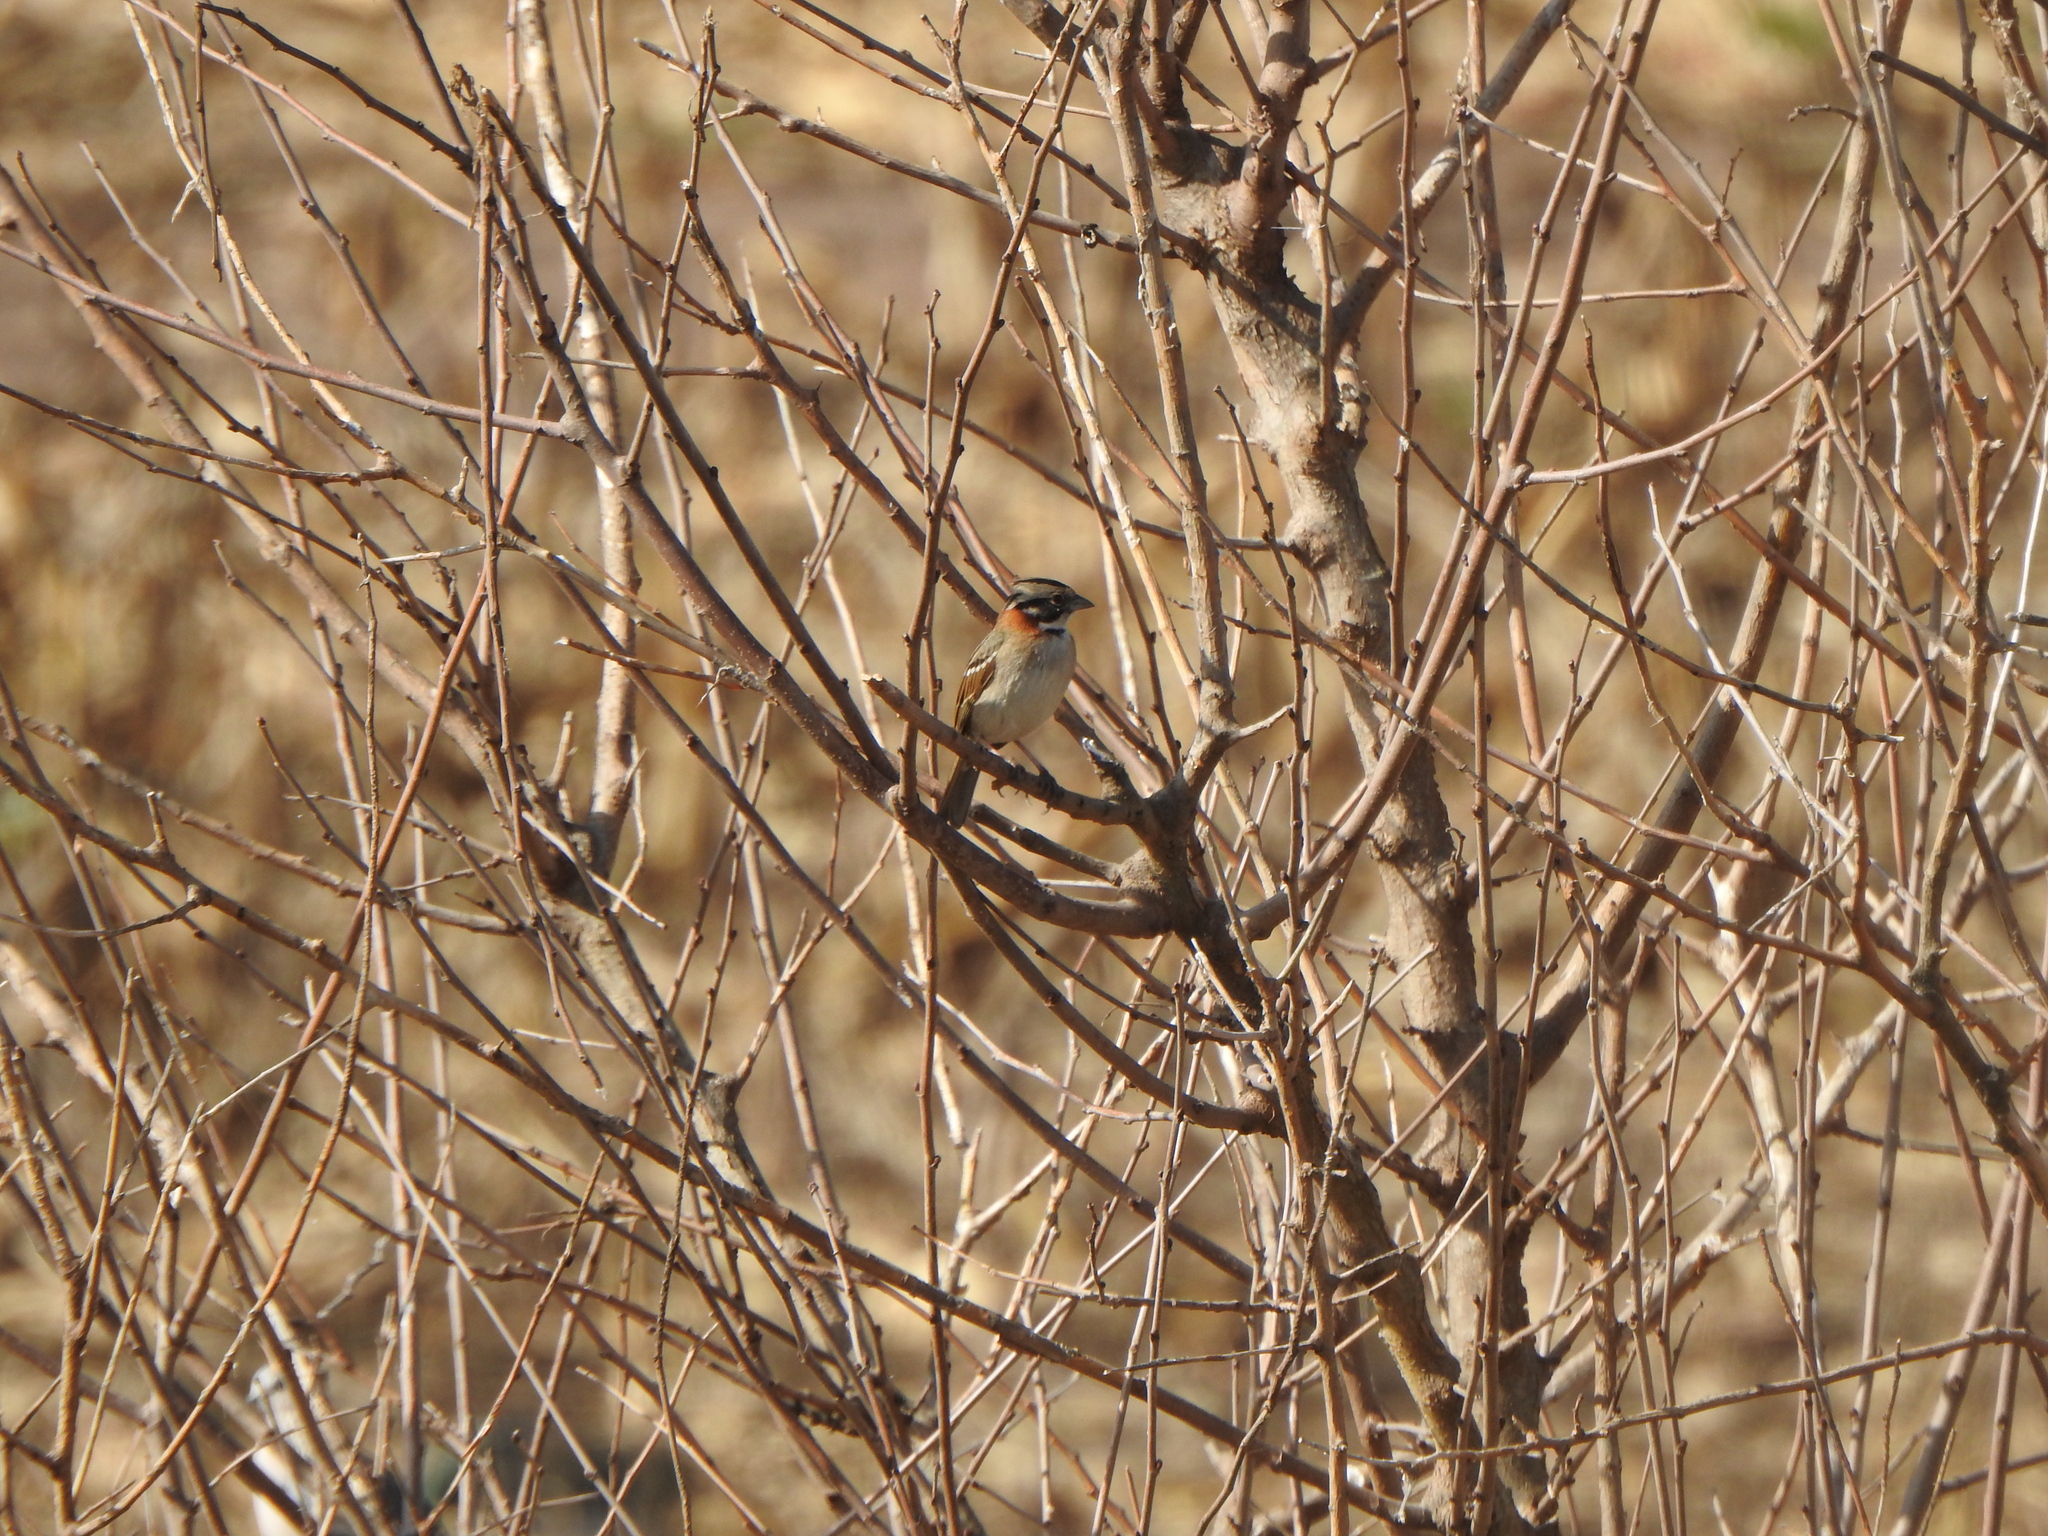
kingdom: Animalia
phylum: Chordata
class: Aves
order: Passeriformes
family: Passerellidae
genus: Zonotrichia
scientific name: Zonotrichia capensis
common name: Rufous-collared sparrow
